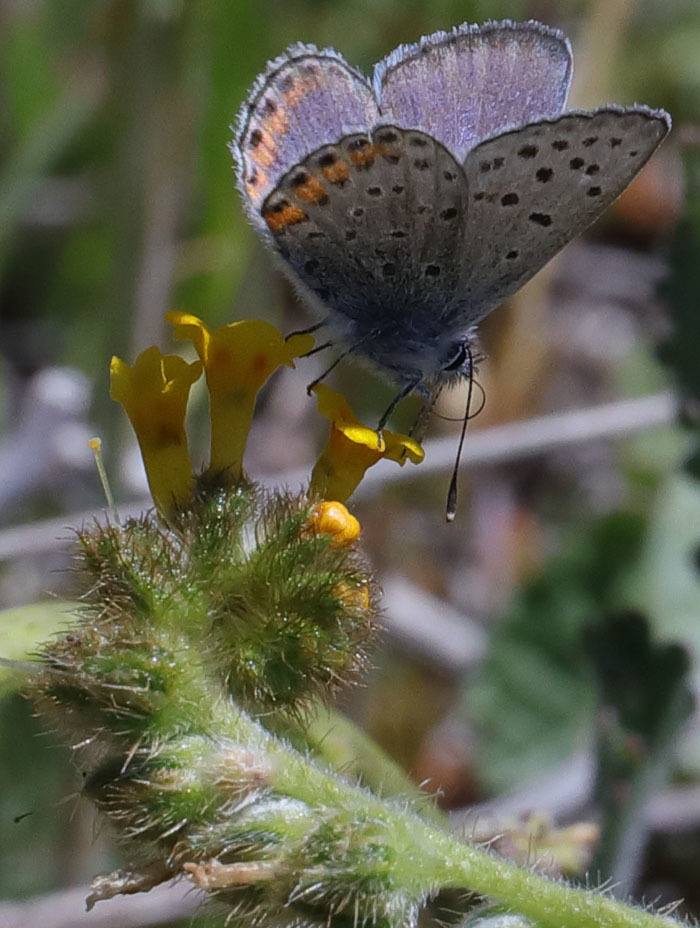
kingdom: Animalia
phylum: Arthropoda
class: Insecta
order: Lepidoptera
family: Lycaenidae
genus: Icaricia
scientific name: Icaricia acmon
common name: Acmon blue
